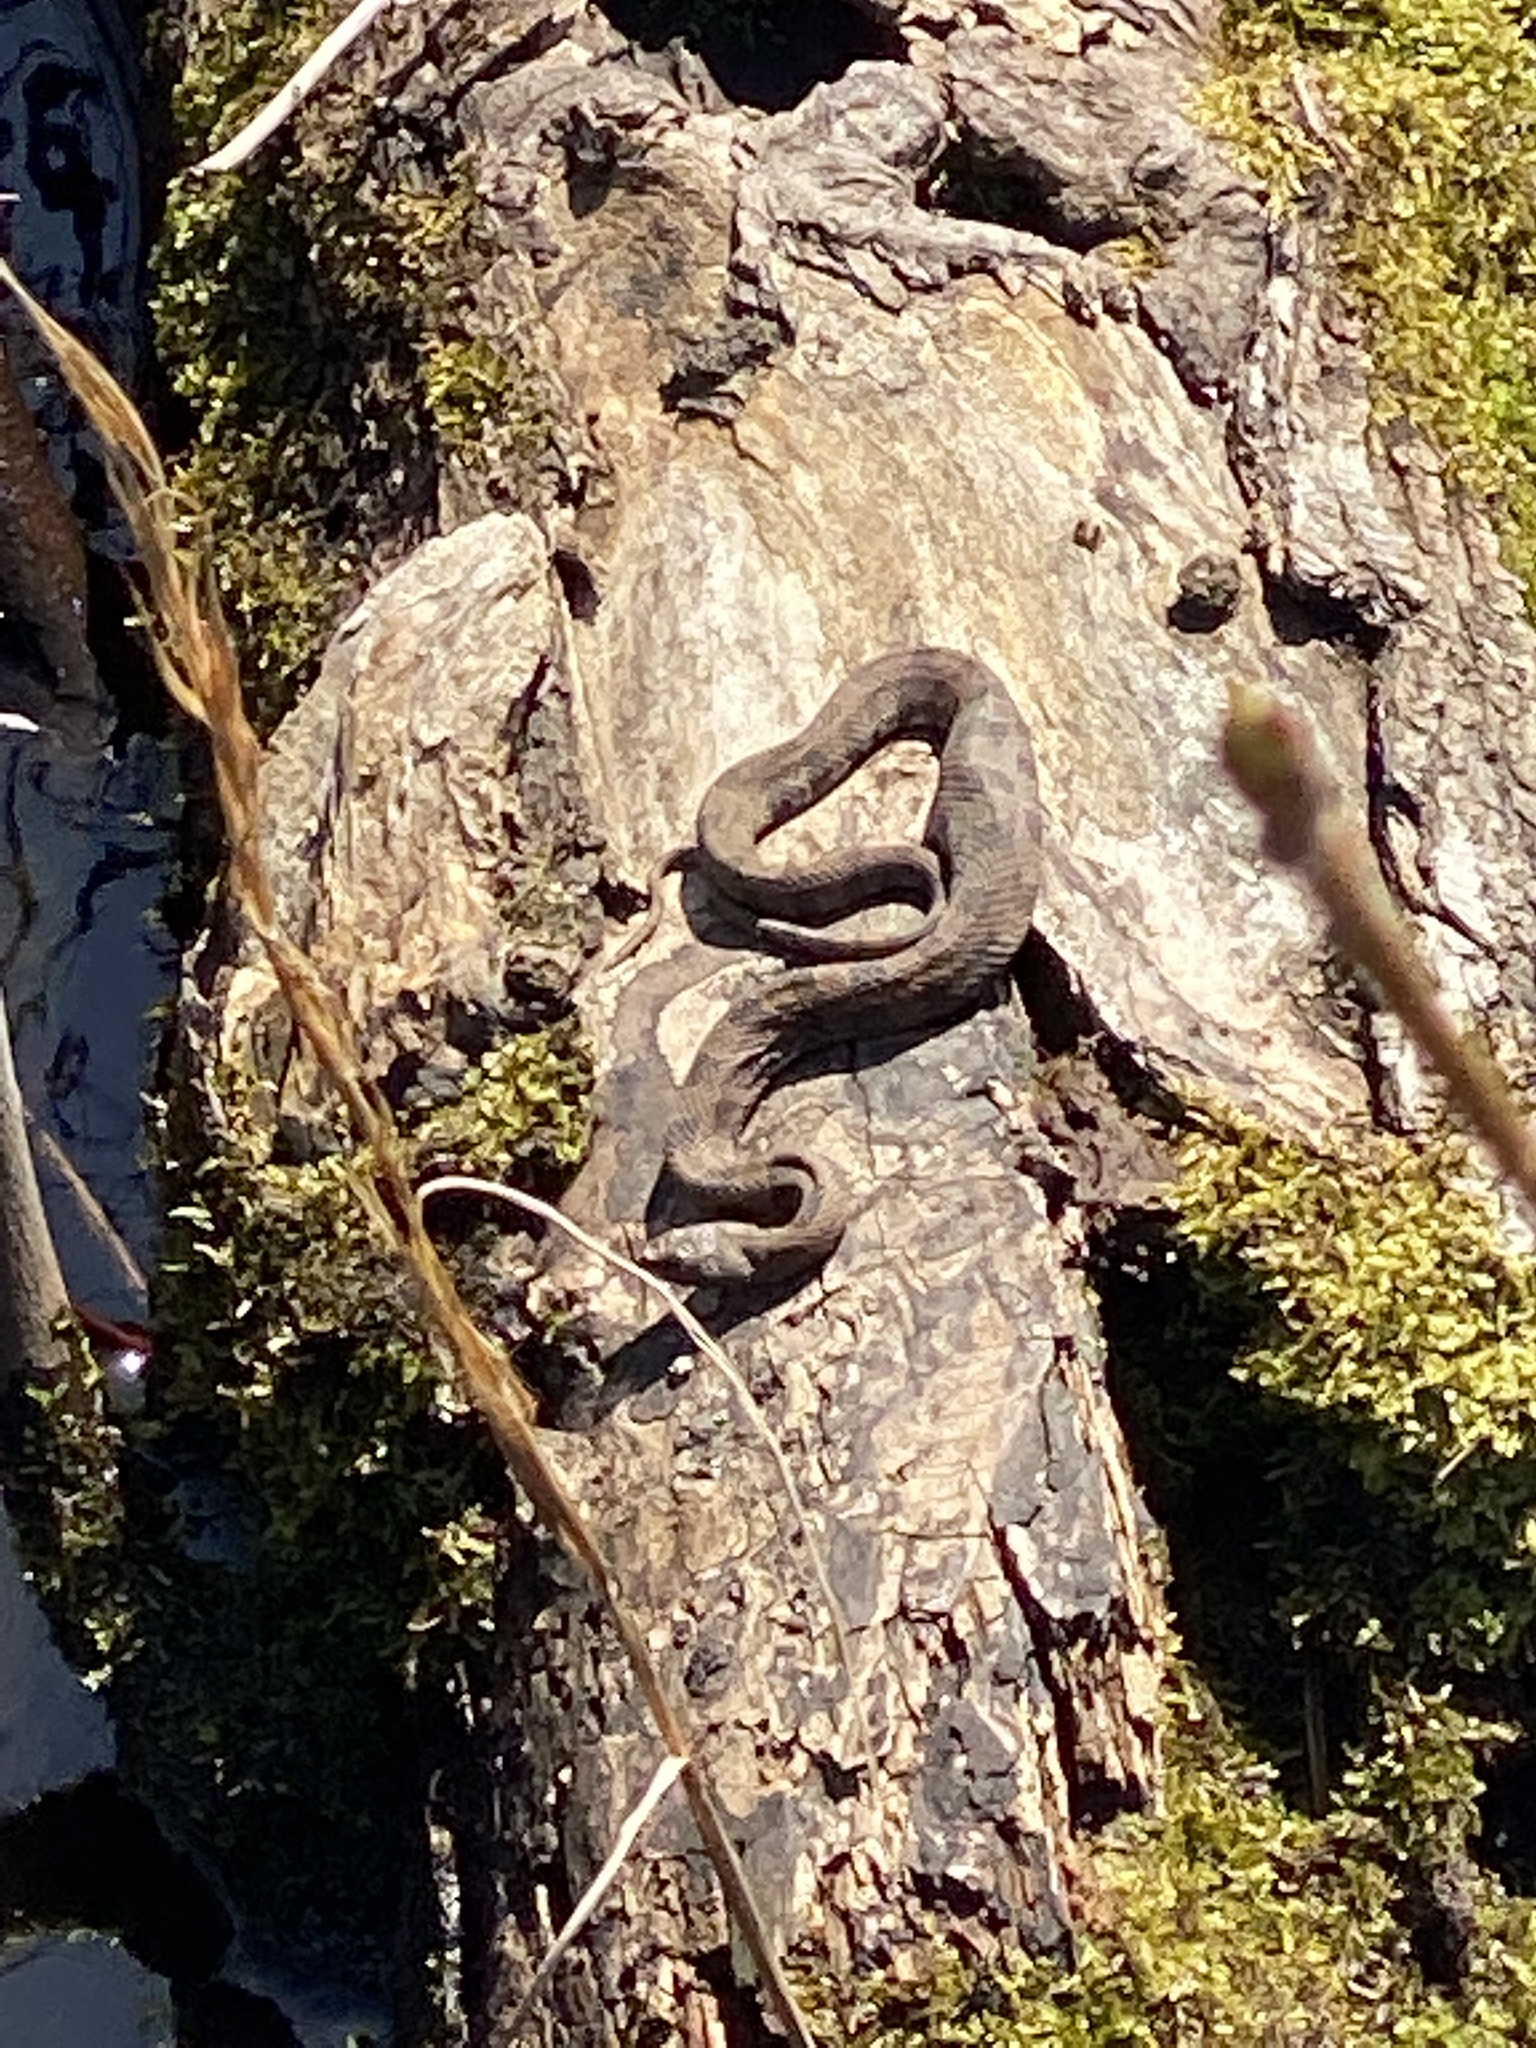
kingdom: Animalia
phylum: Chordata
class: Squamata
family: Colubridae
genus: Nerodia
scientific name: Nerodia taxispilota
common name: Brown water snake
